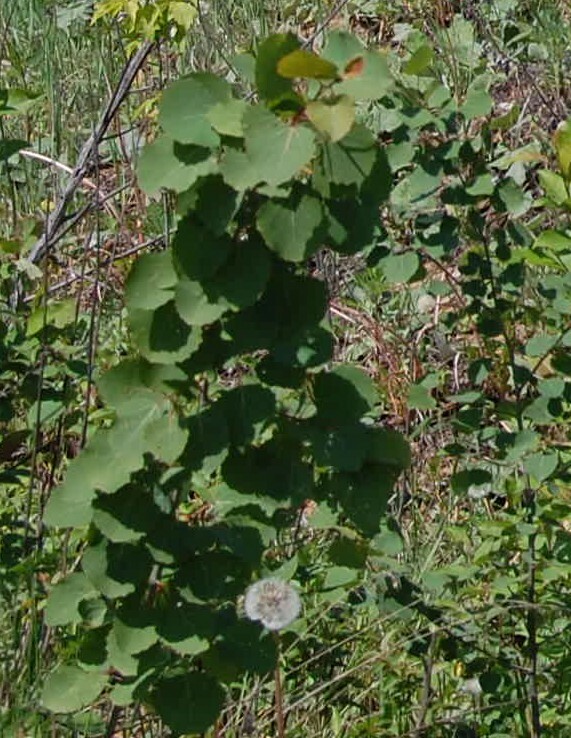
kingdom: Plantae
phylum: Tracheophyta
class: Magnoliopsida
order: Malpighiales
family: Salicaceae
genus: Populus
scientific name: Populus tremula
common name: European aspen
